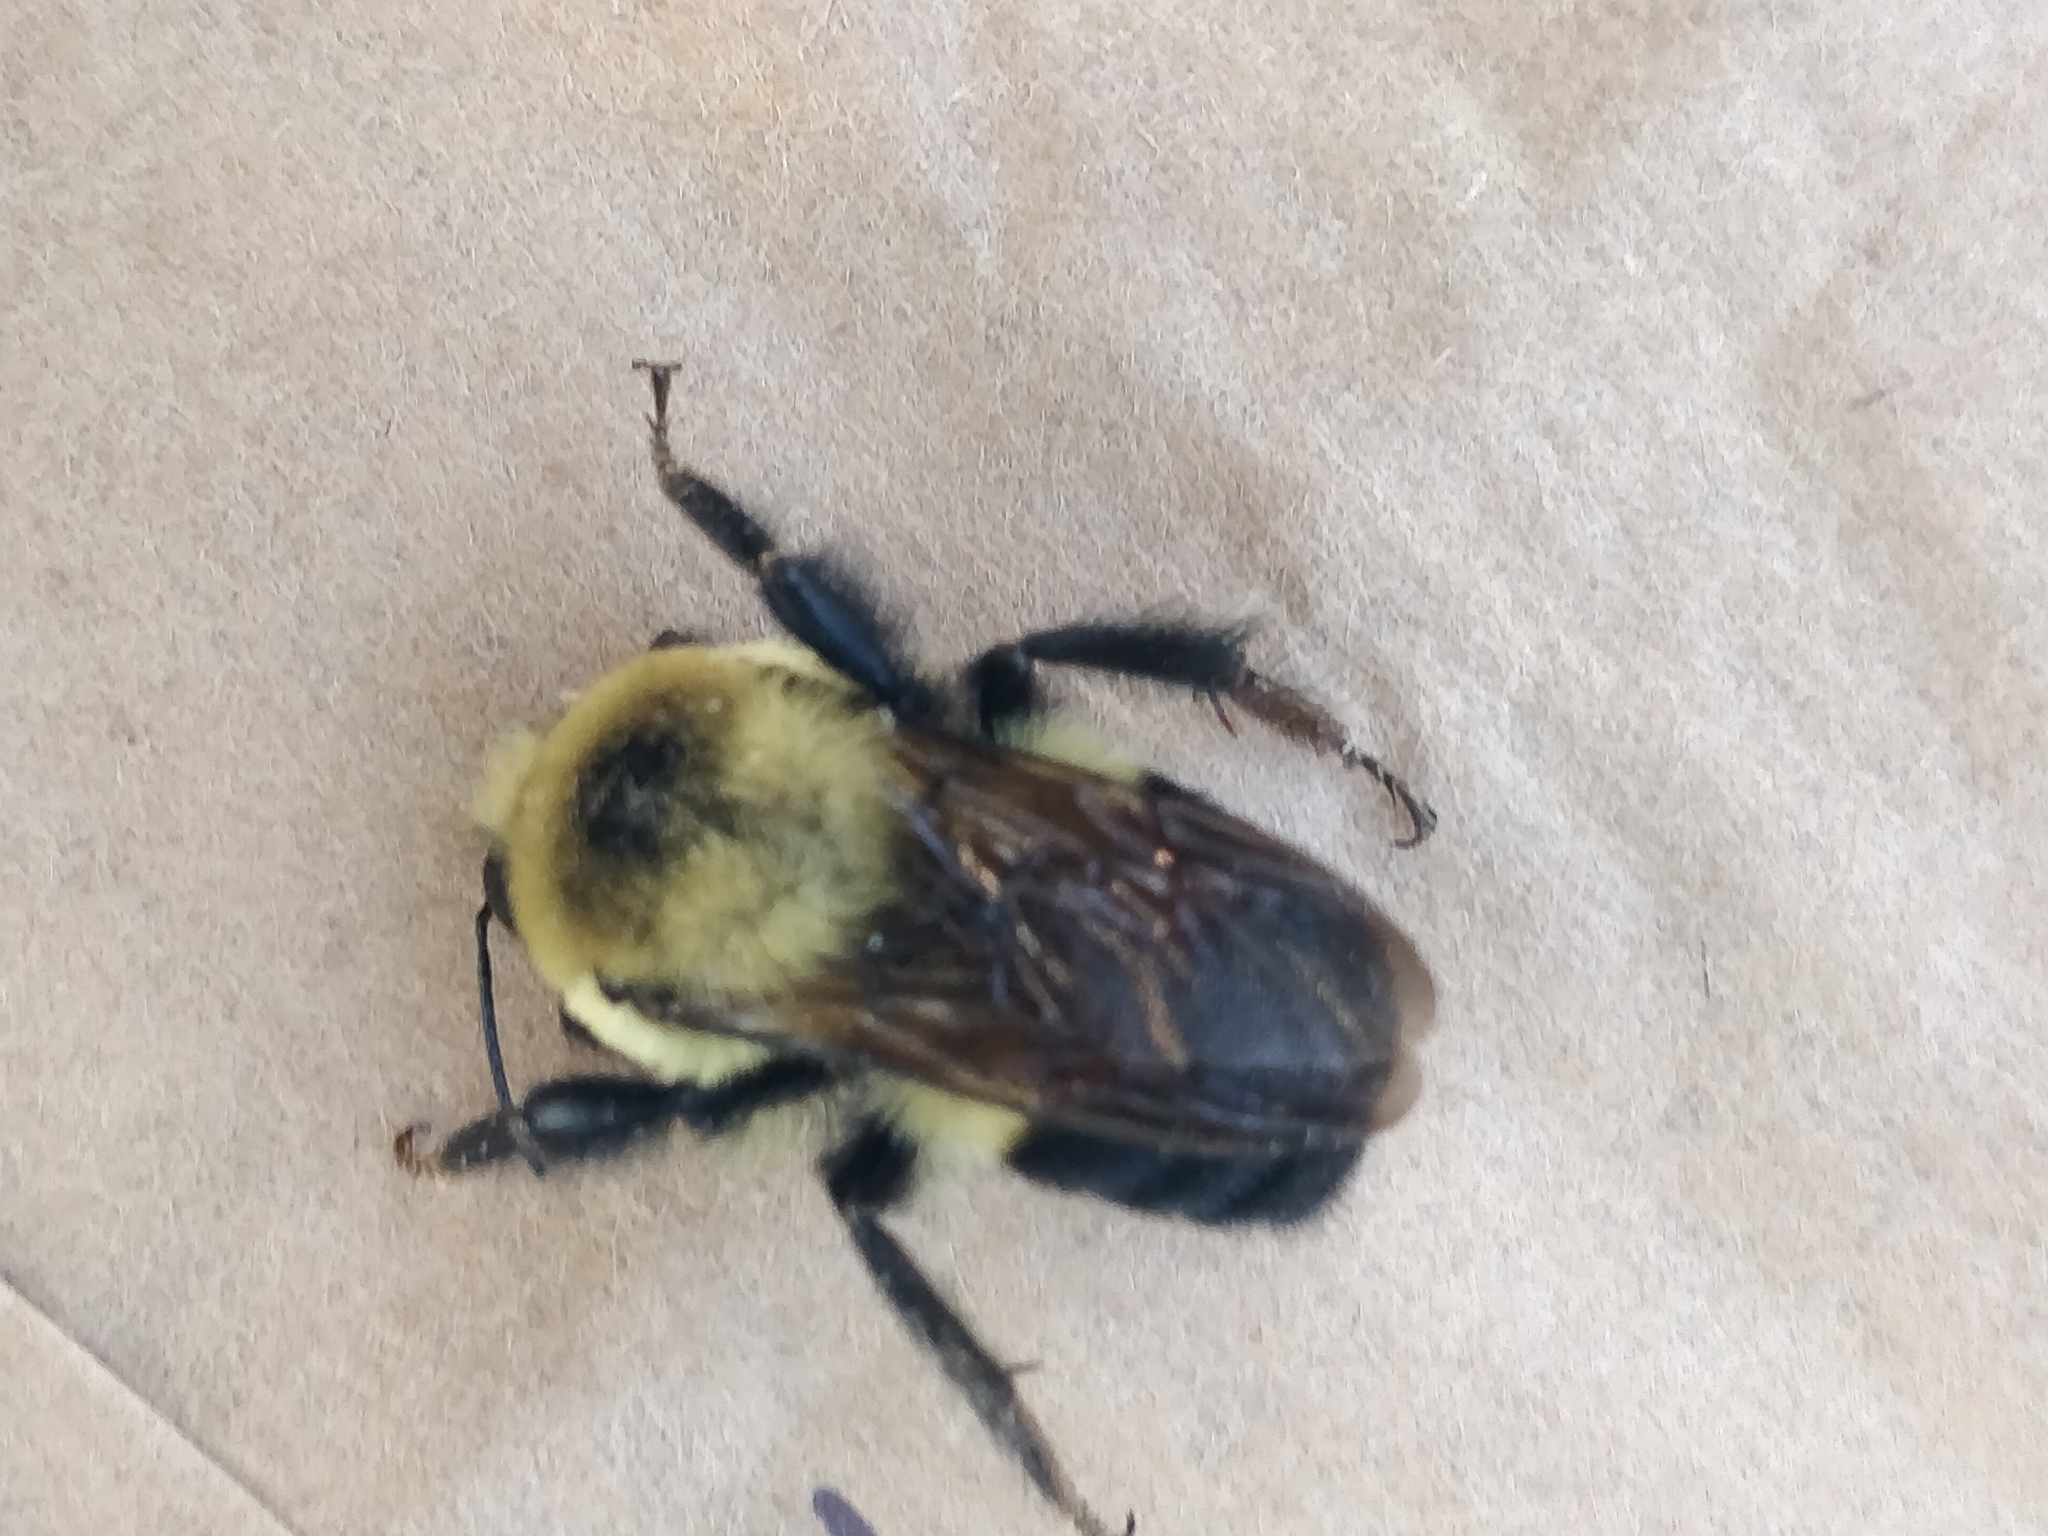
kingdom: Animalia
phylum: Arthropoda
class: Insecta
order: Hymenoptera
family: Apidae
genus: Bombus
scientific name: Bombus griseocollis
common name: Brown-belted bumble bee
